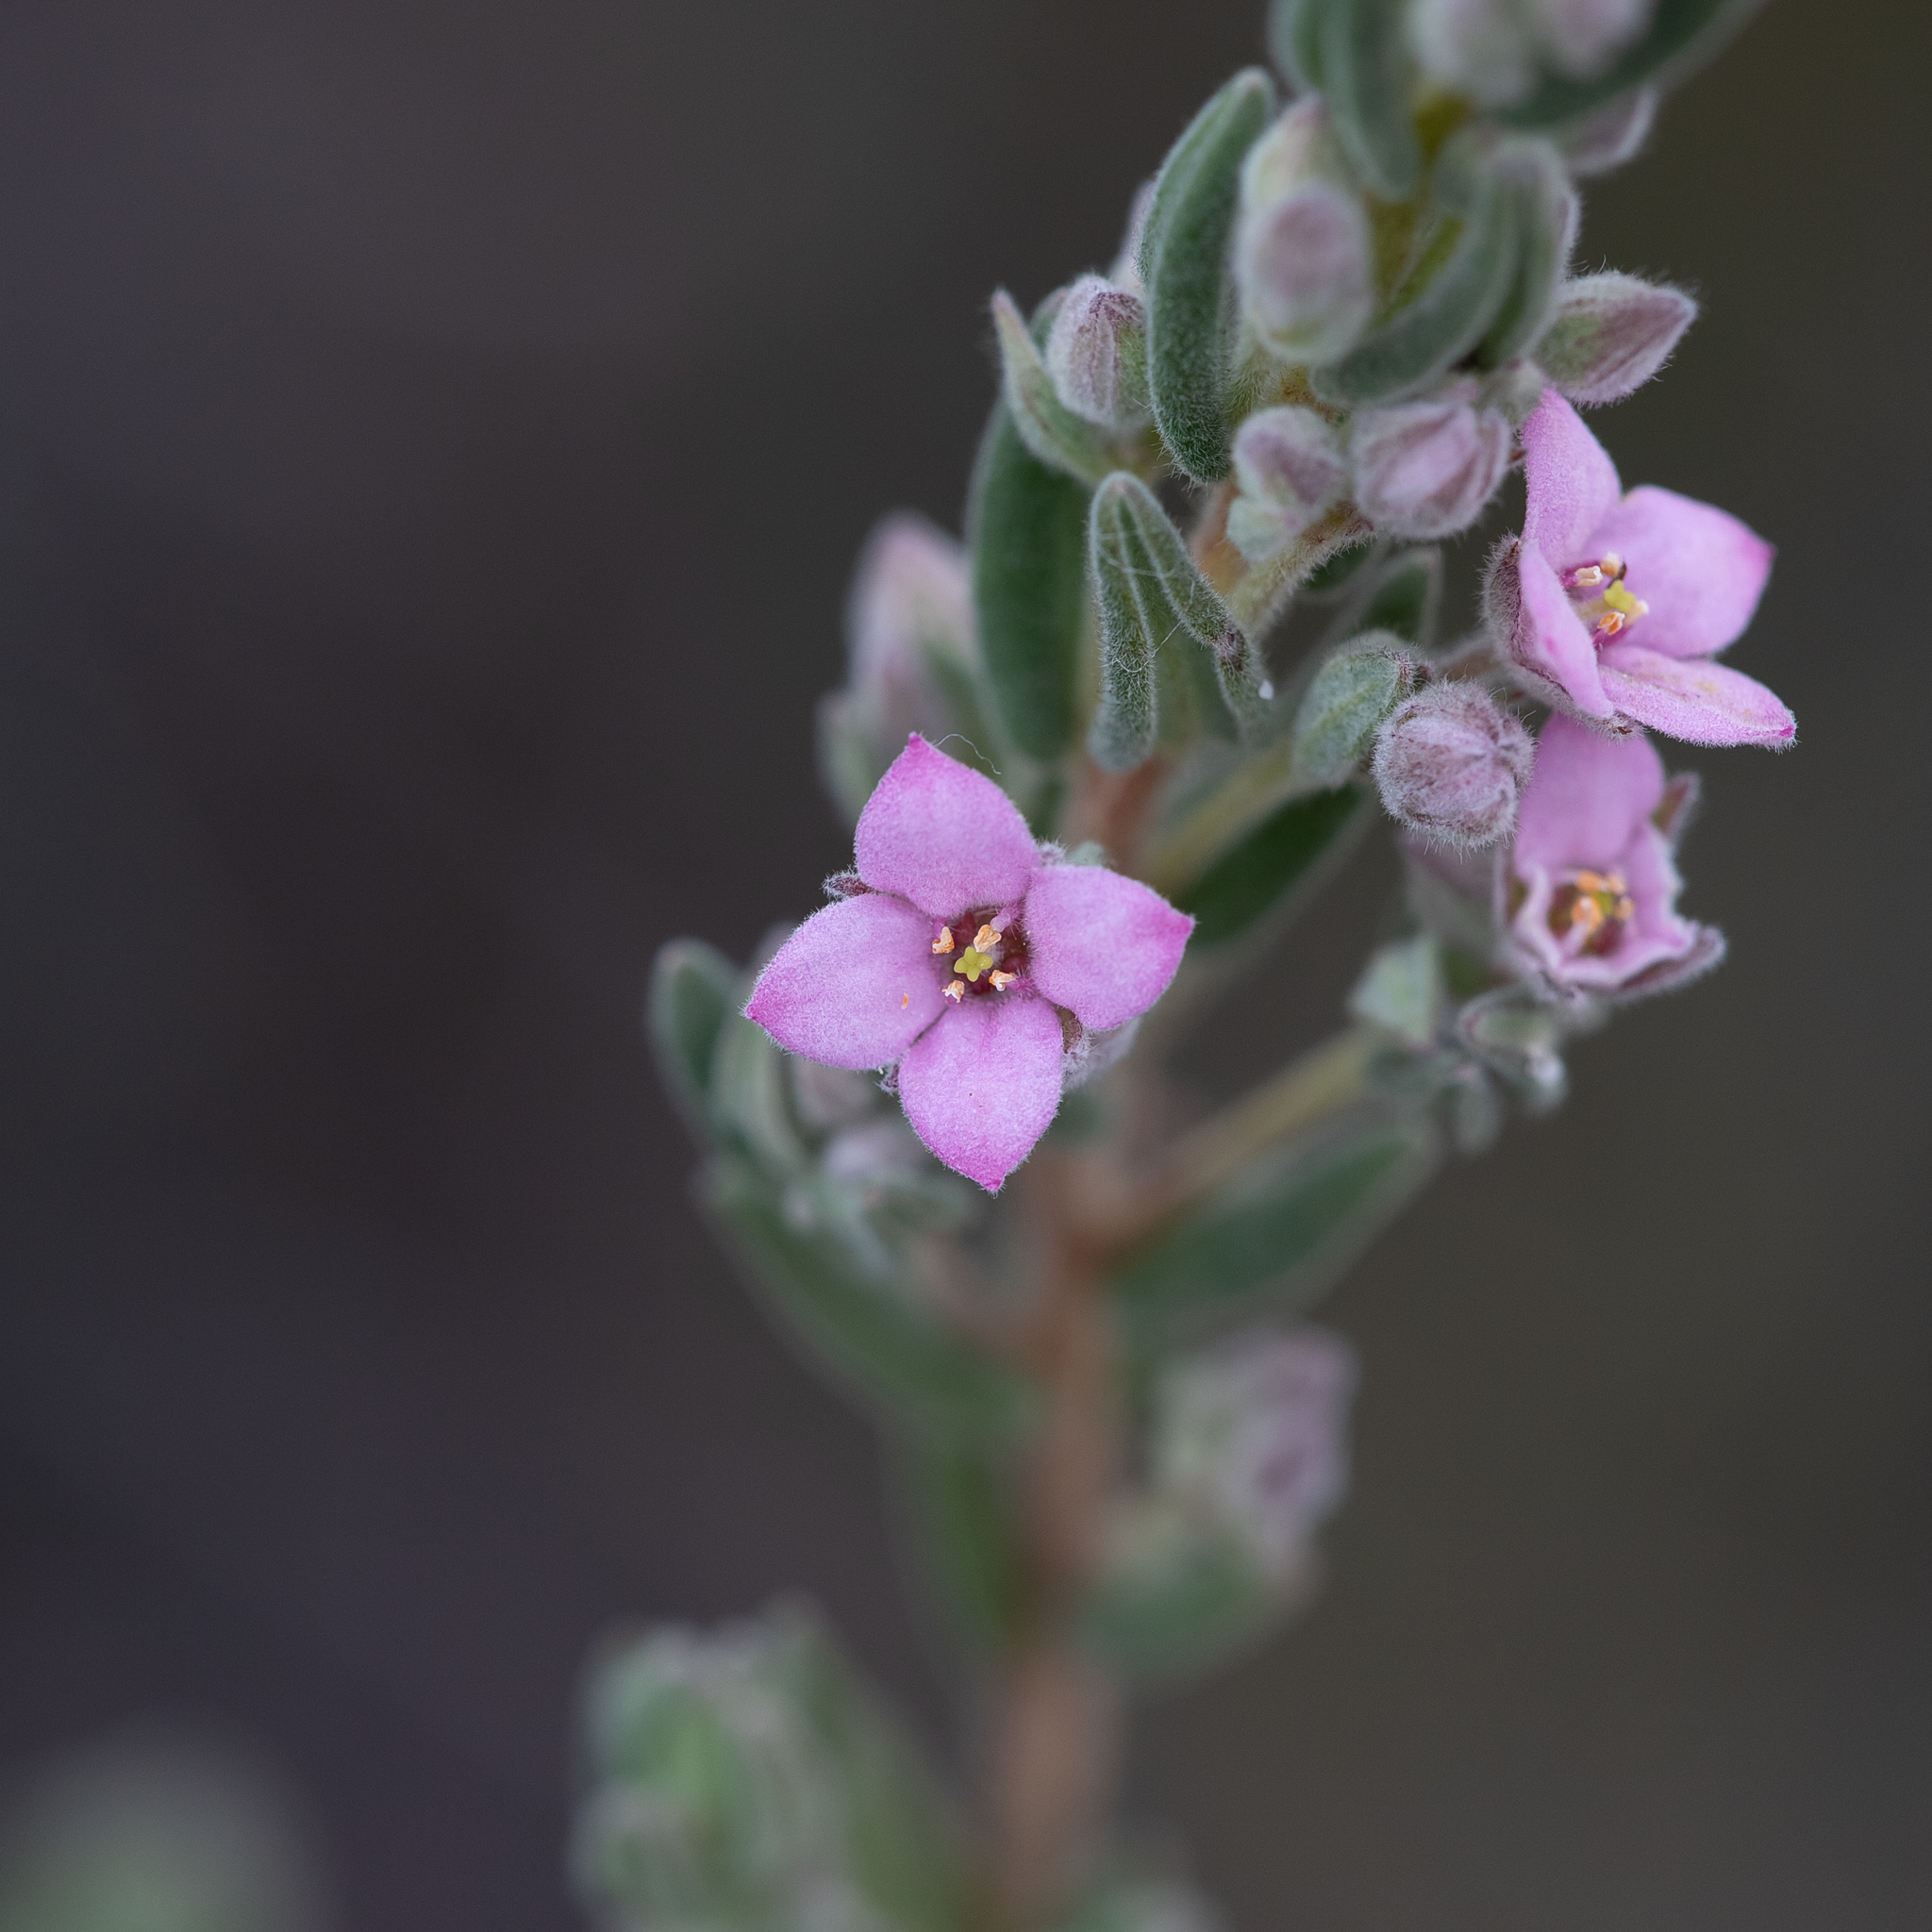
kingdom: Plantae
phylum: Tracheophyta
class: Magnoliopsida
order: Sapindales
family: Rutaceae
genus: Zieria
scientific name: Zieria veronicea
